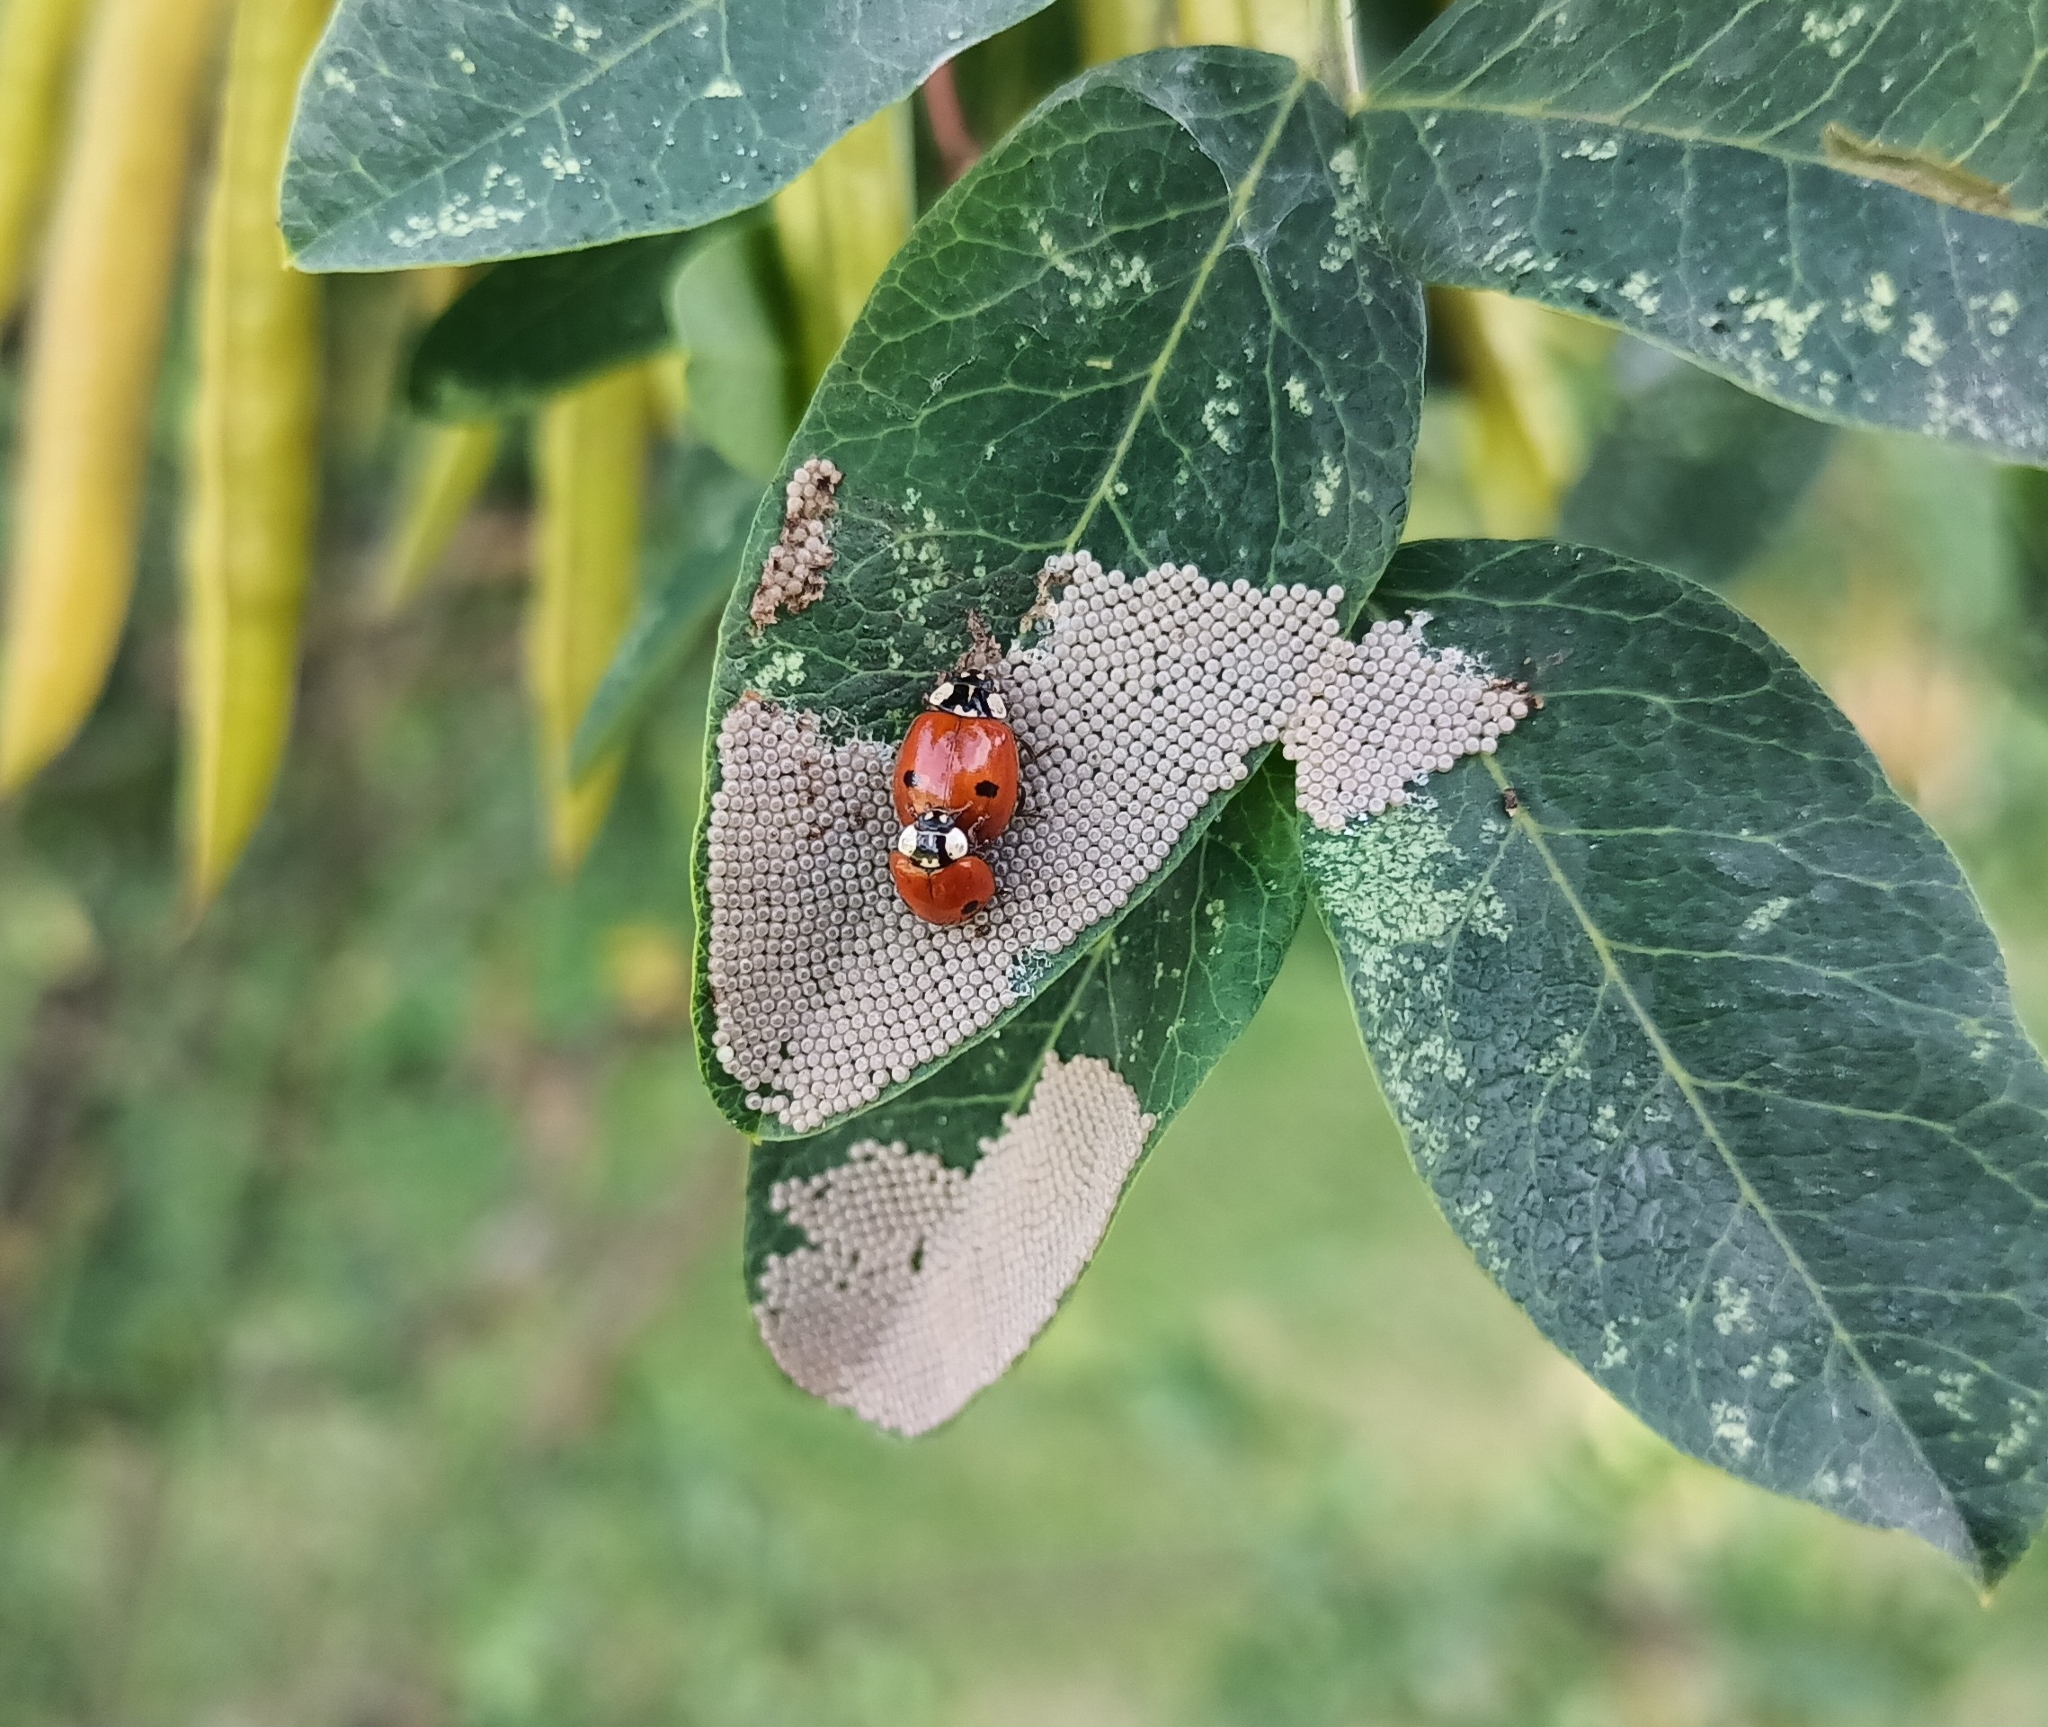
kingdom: Animalia
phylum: Arthropoda
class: Insecta
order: Coleoptera
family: Coccinellidae
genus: Adalia
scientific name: Adalia bipunctata
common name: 2-spot ladybird
